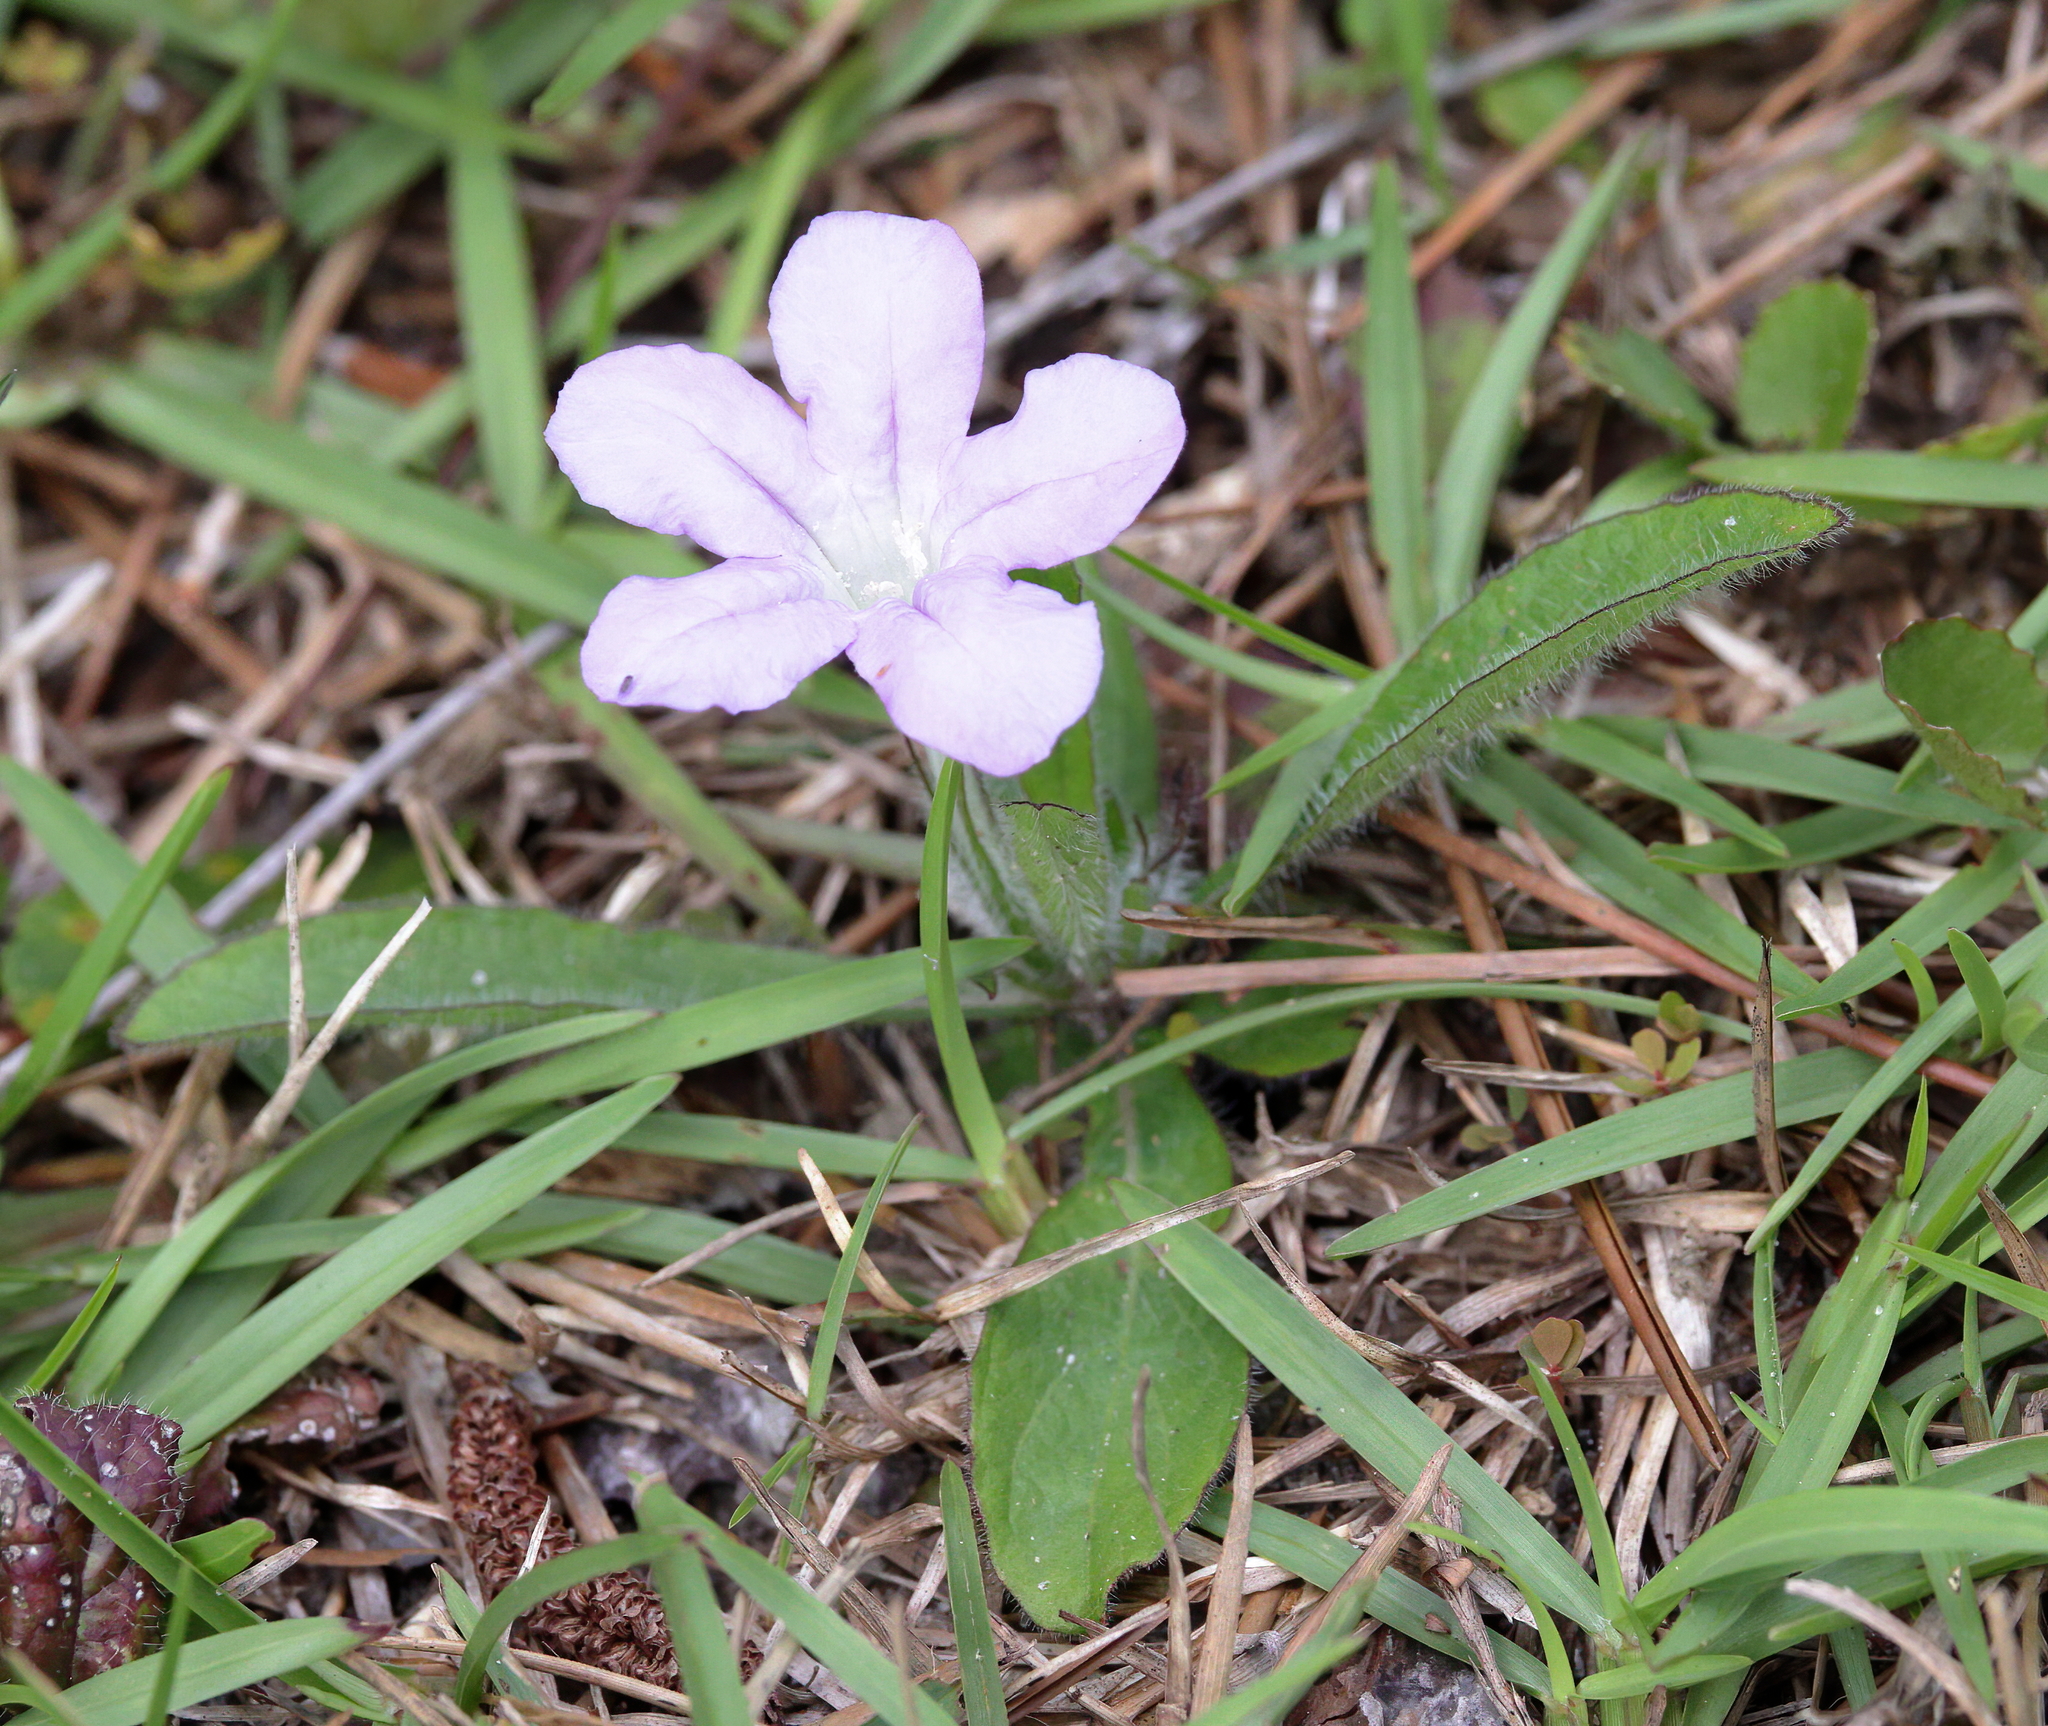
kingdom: Plantae
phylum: Tracheophyta
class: Magnoliopsida
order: Lamiales
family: Acanthaceae
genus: Ruellia
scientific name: Ruellia caroliniensis
